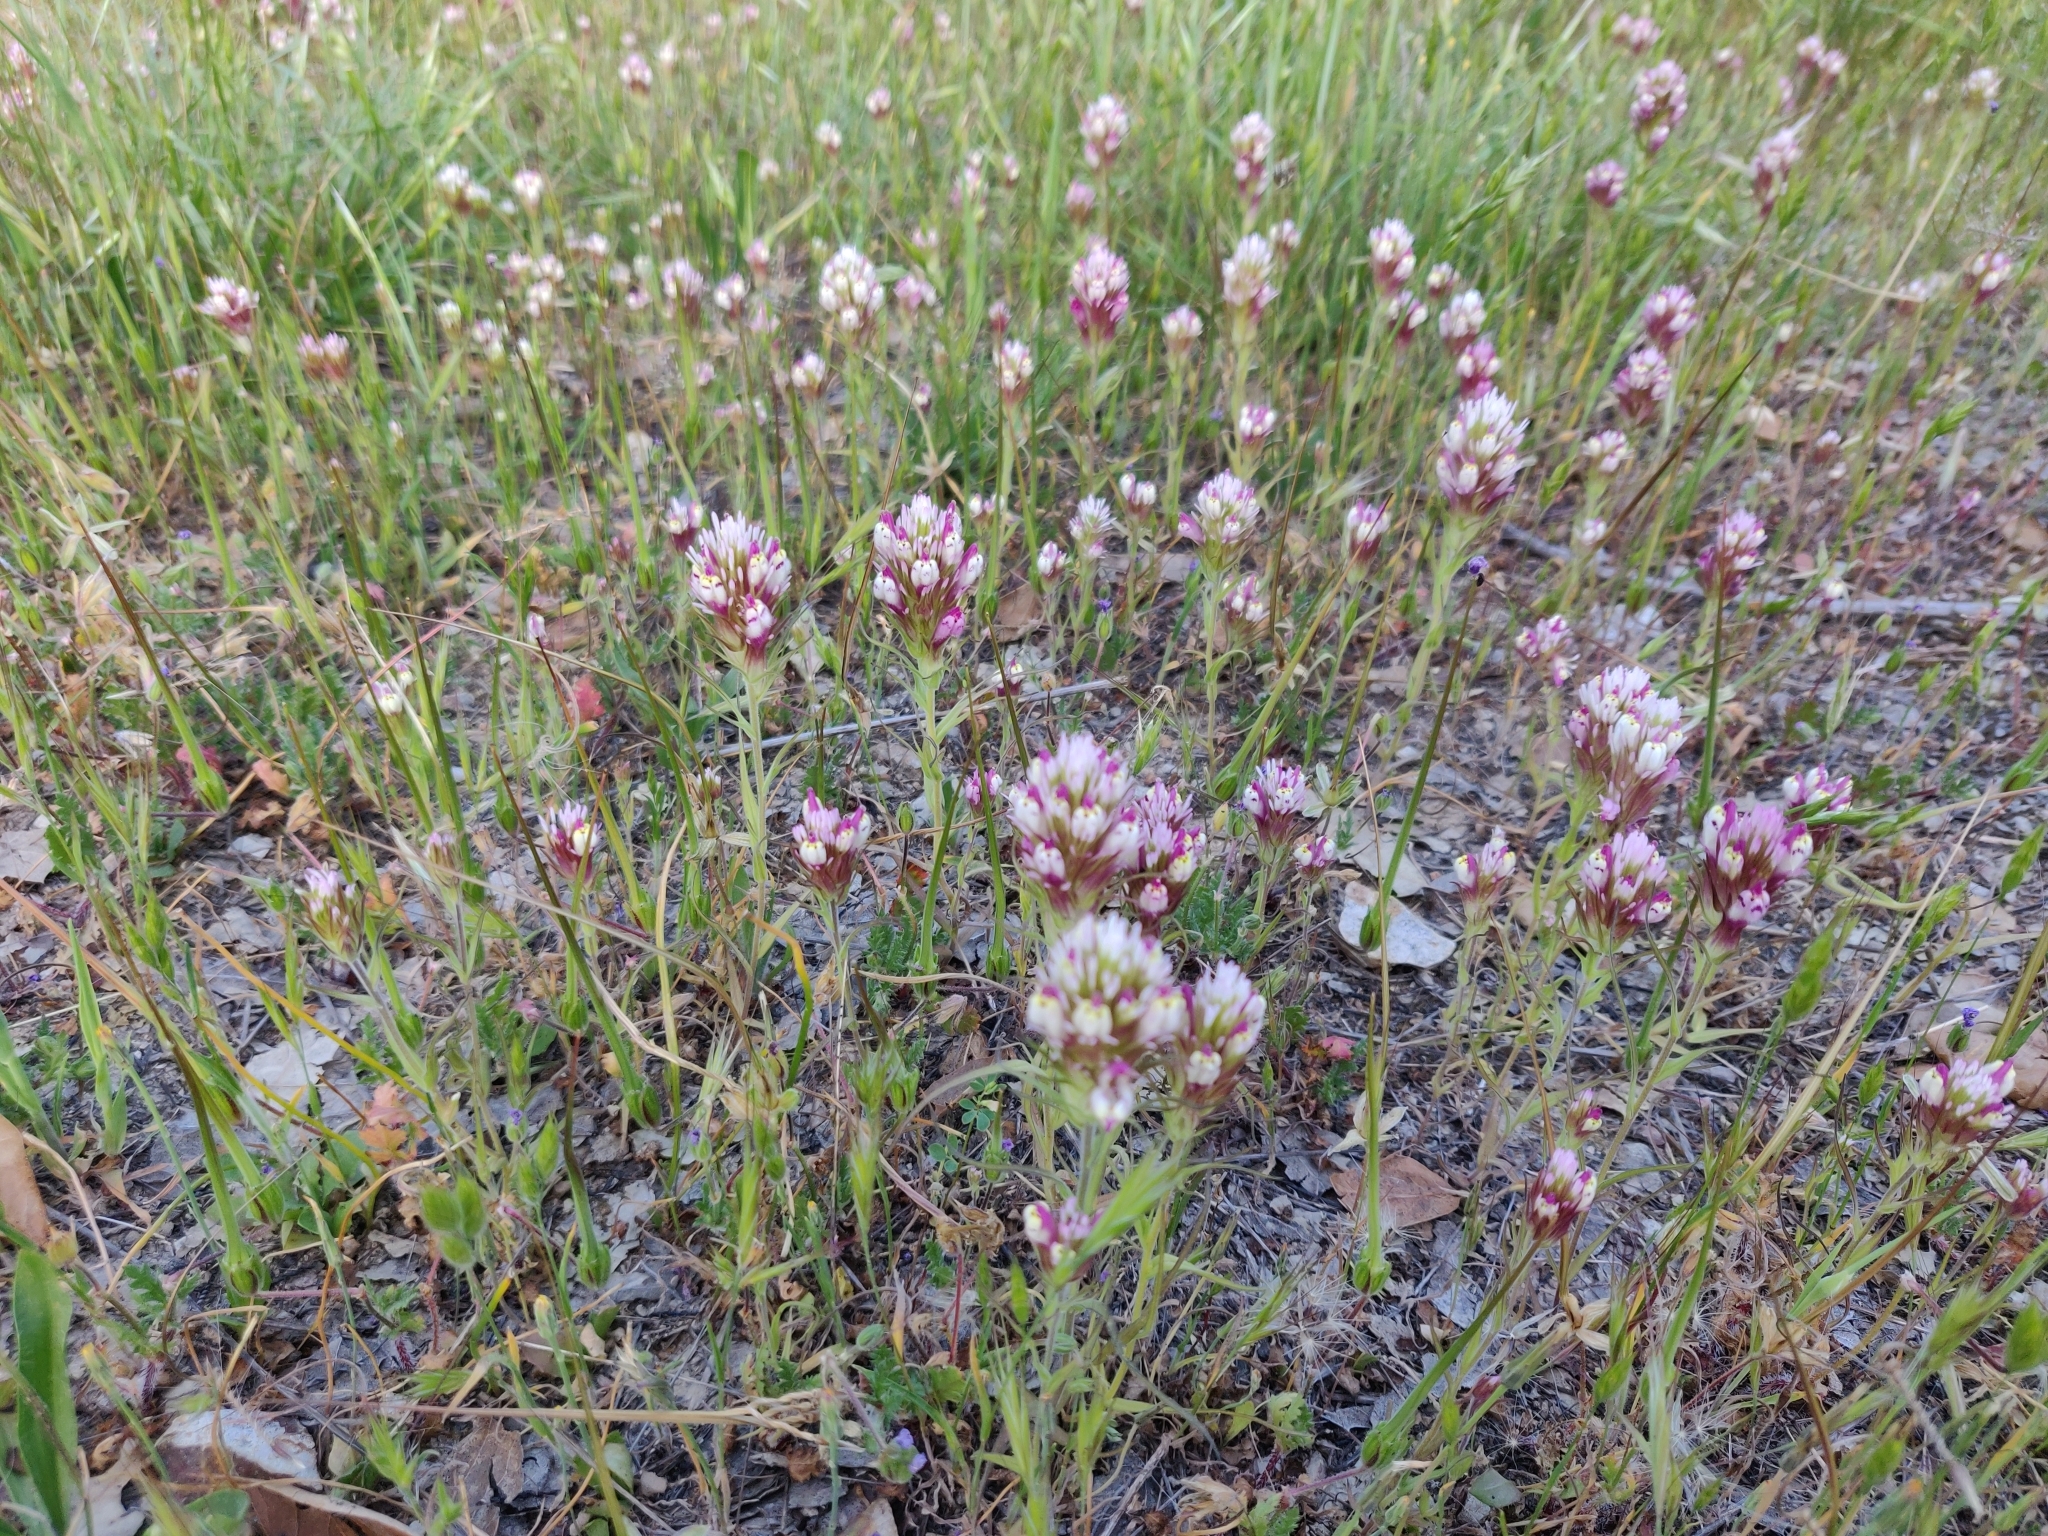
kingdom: Plantae
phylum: Tracheophyta
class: Magnoliopsida
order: Lamiales
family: Orobanchaceae
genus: Castilleja
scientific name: Castilleja densiflora
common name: Dense-flower indian paintbrush
